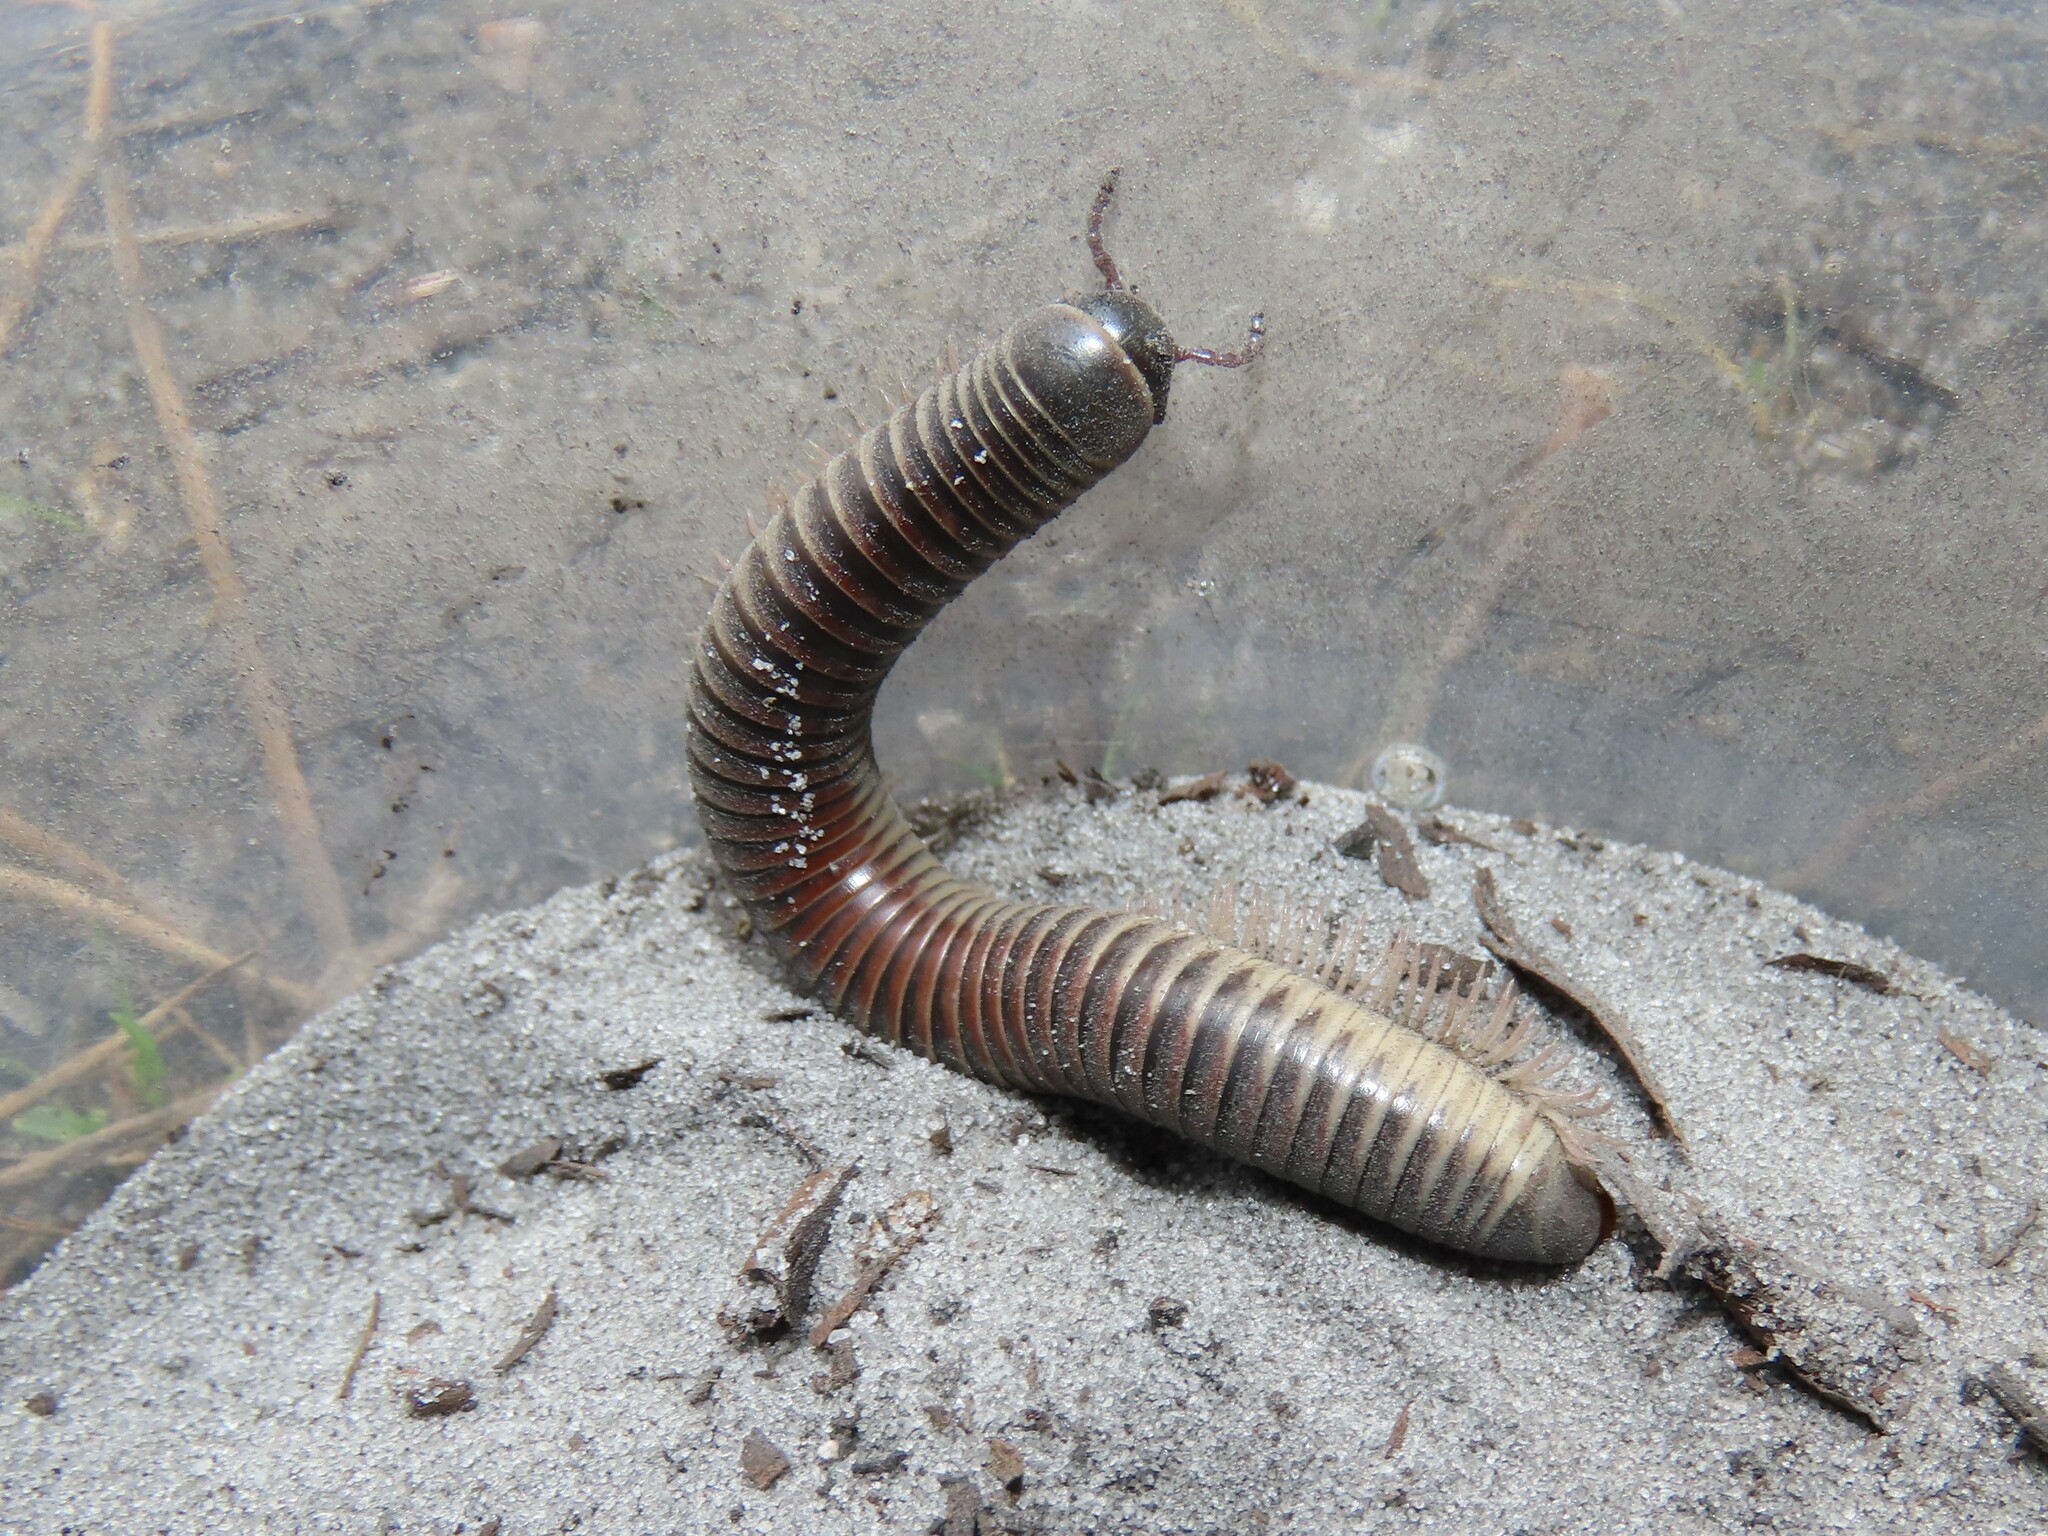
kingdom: Animalia
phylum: Arthropoda
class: Diplopoda
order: Spirobolida
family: Spirobolidae
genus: Chicobolus
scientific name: Chicobolus spinigerus
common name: Florida ivory millipede
